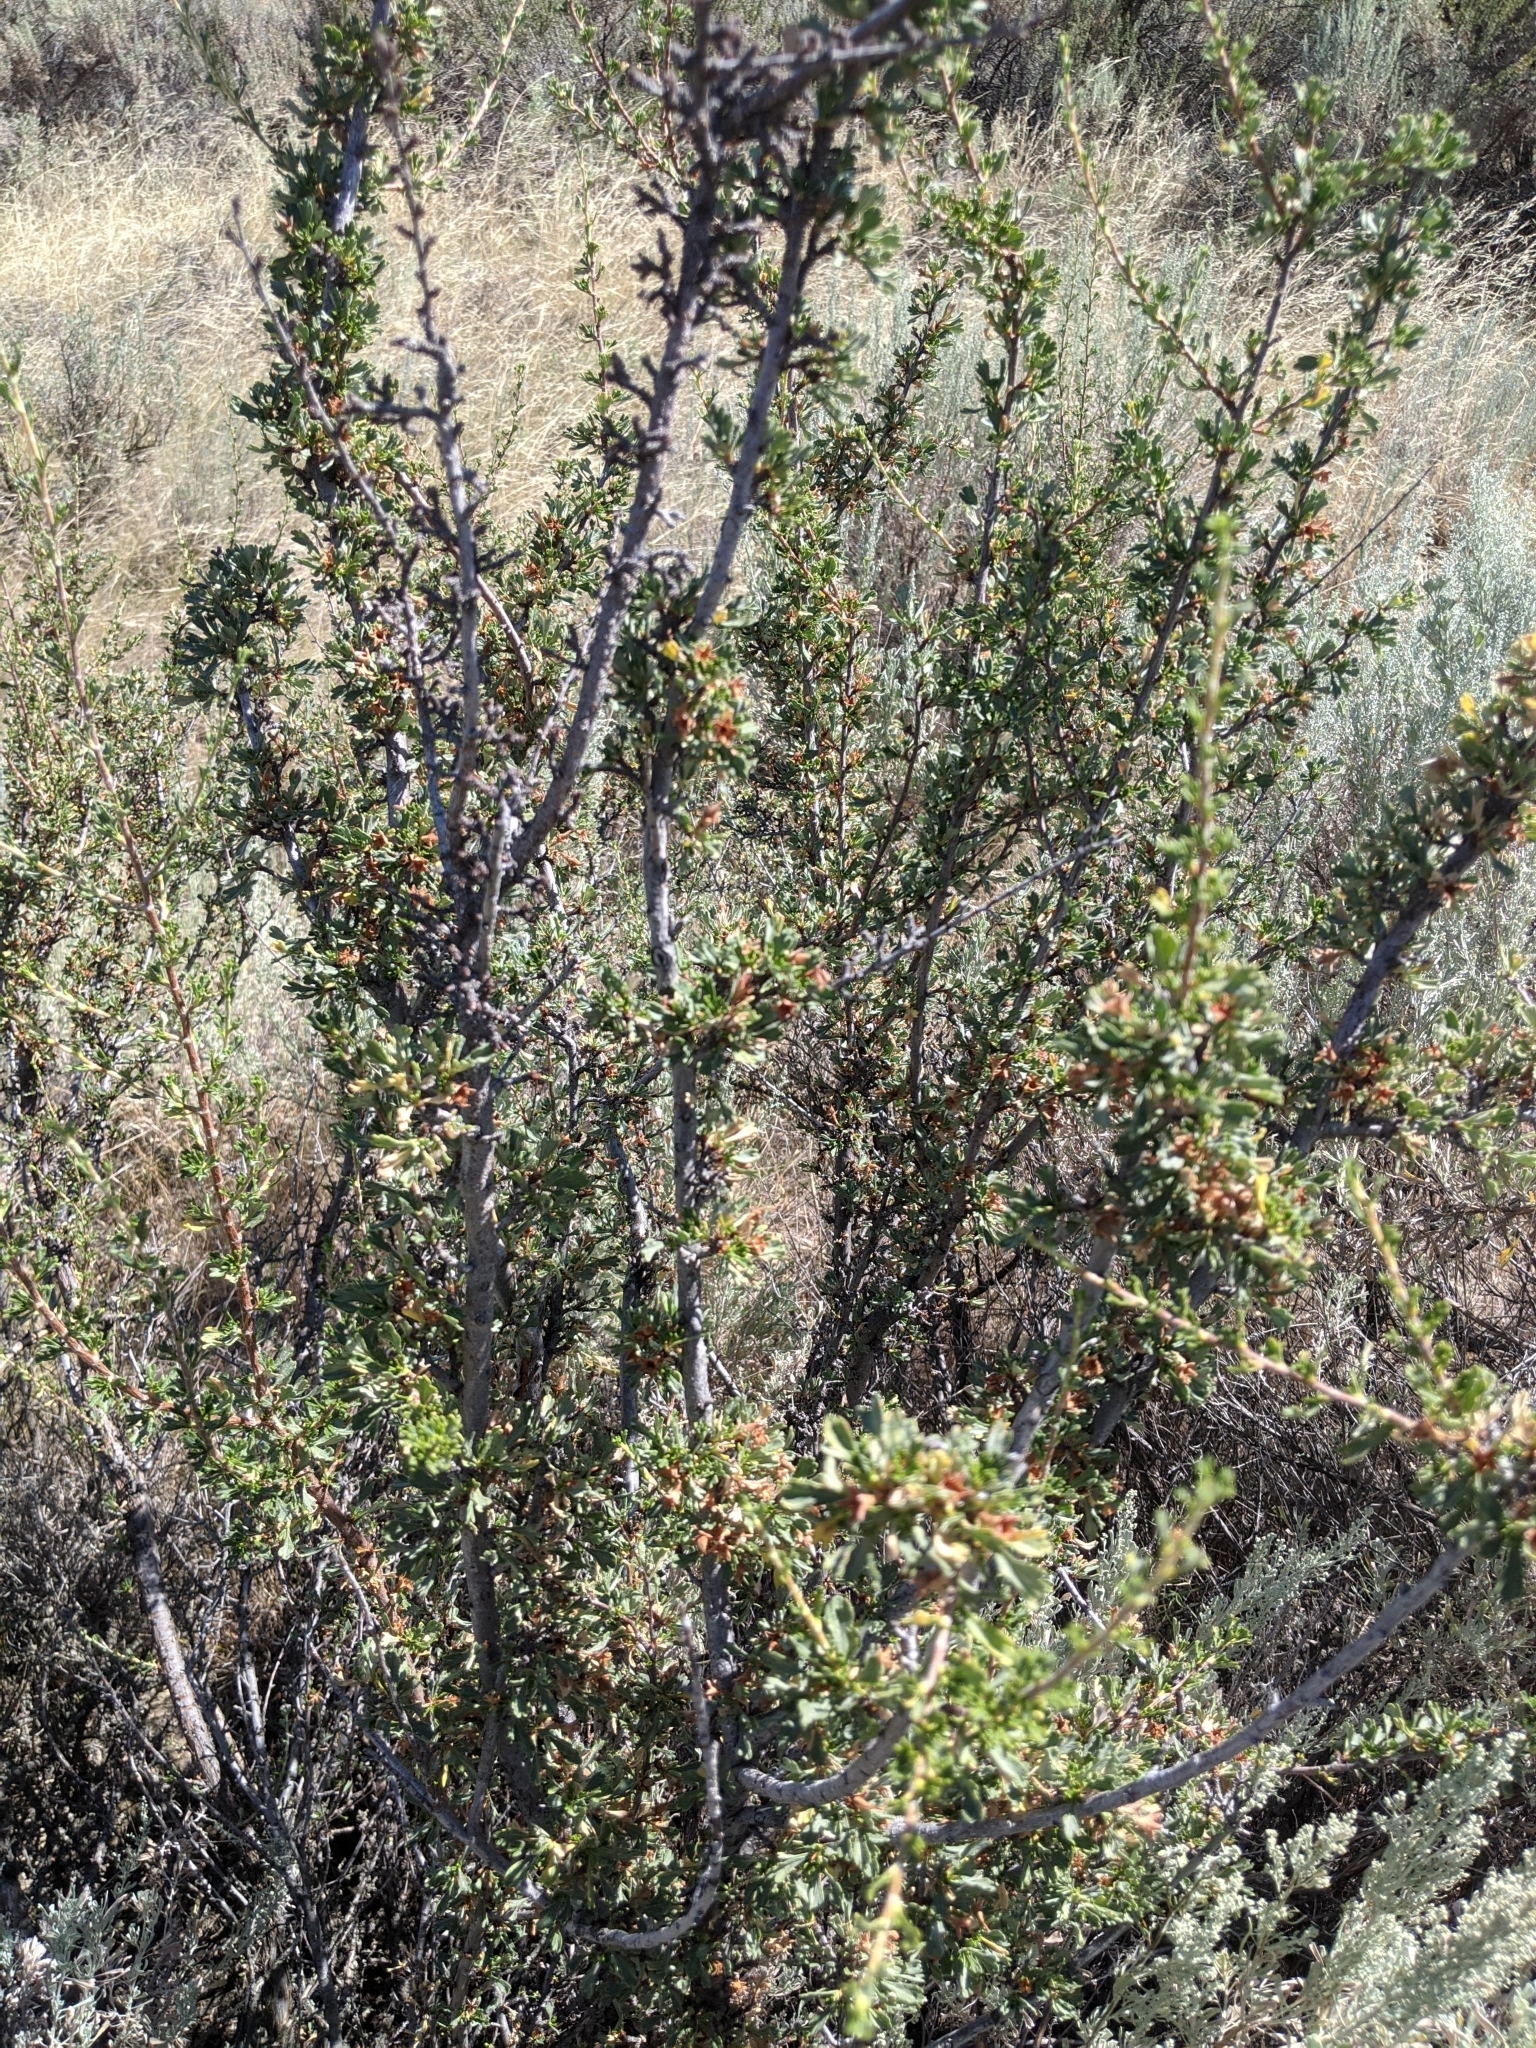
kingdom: Plantae
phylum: Tracheophyta
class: Magnoliopsida
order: Rosales
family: Rosaceae
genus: Purshia
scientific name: Purshia tridentata
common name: Antelope bitterbrush
